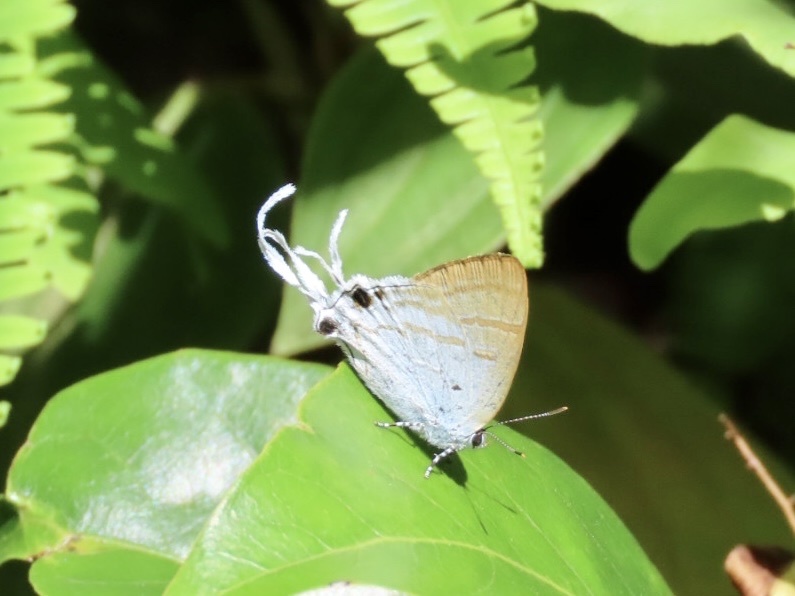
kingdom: Animalia
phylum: Arthropoda
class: Insecta
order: Lepidoptera
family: Lycaenidae
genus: Zeltus
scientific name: Zeltus amasa
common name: Fluffy tit
